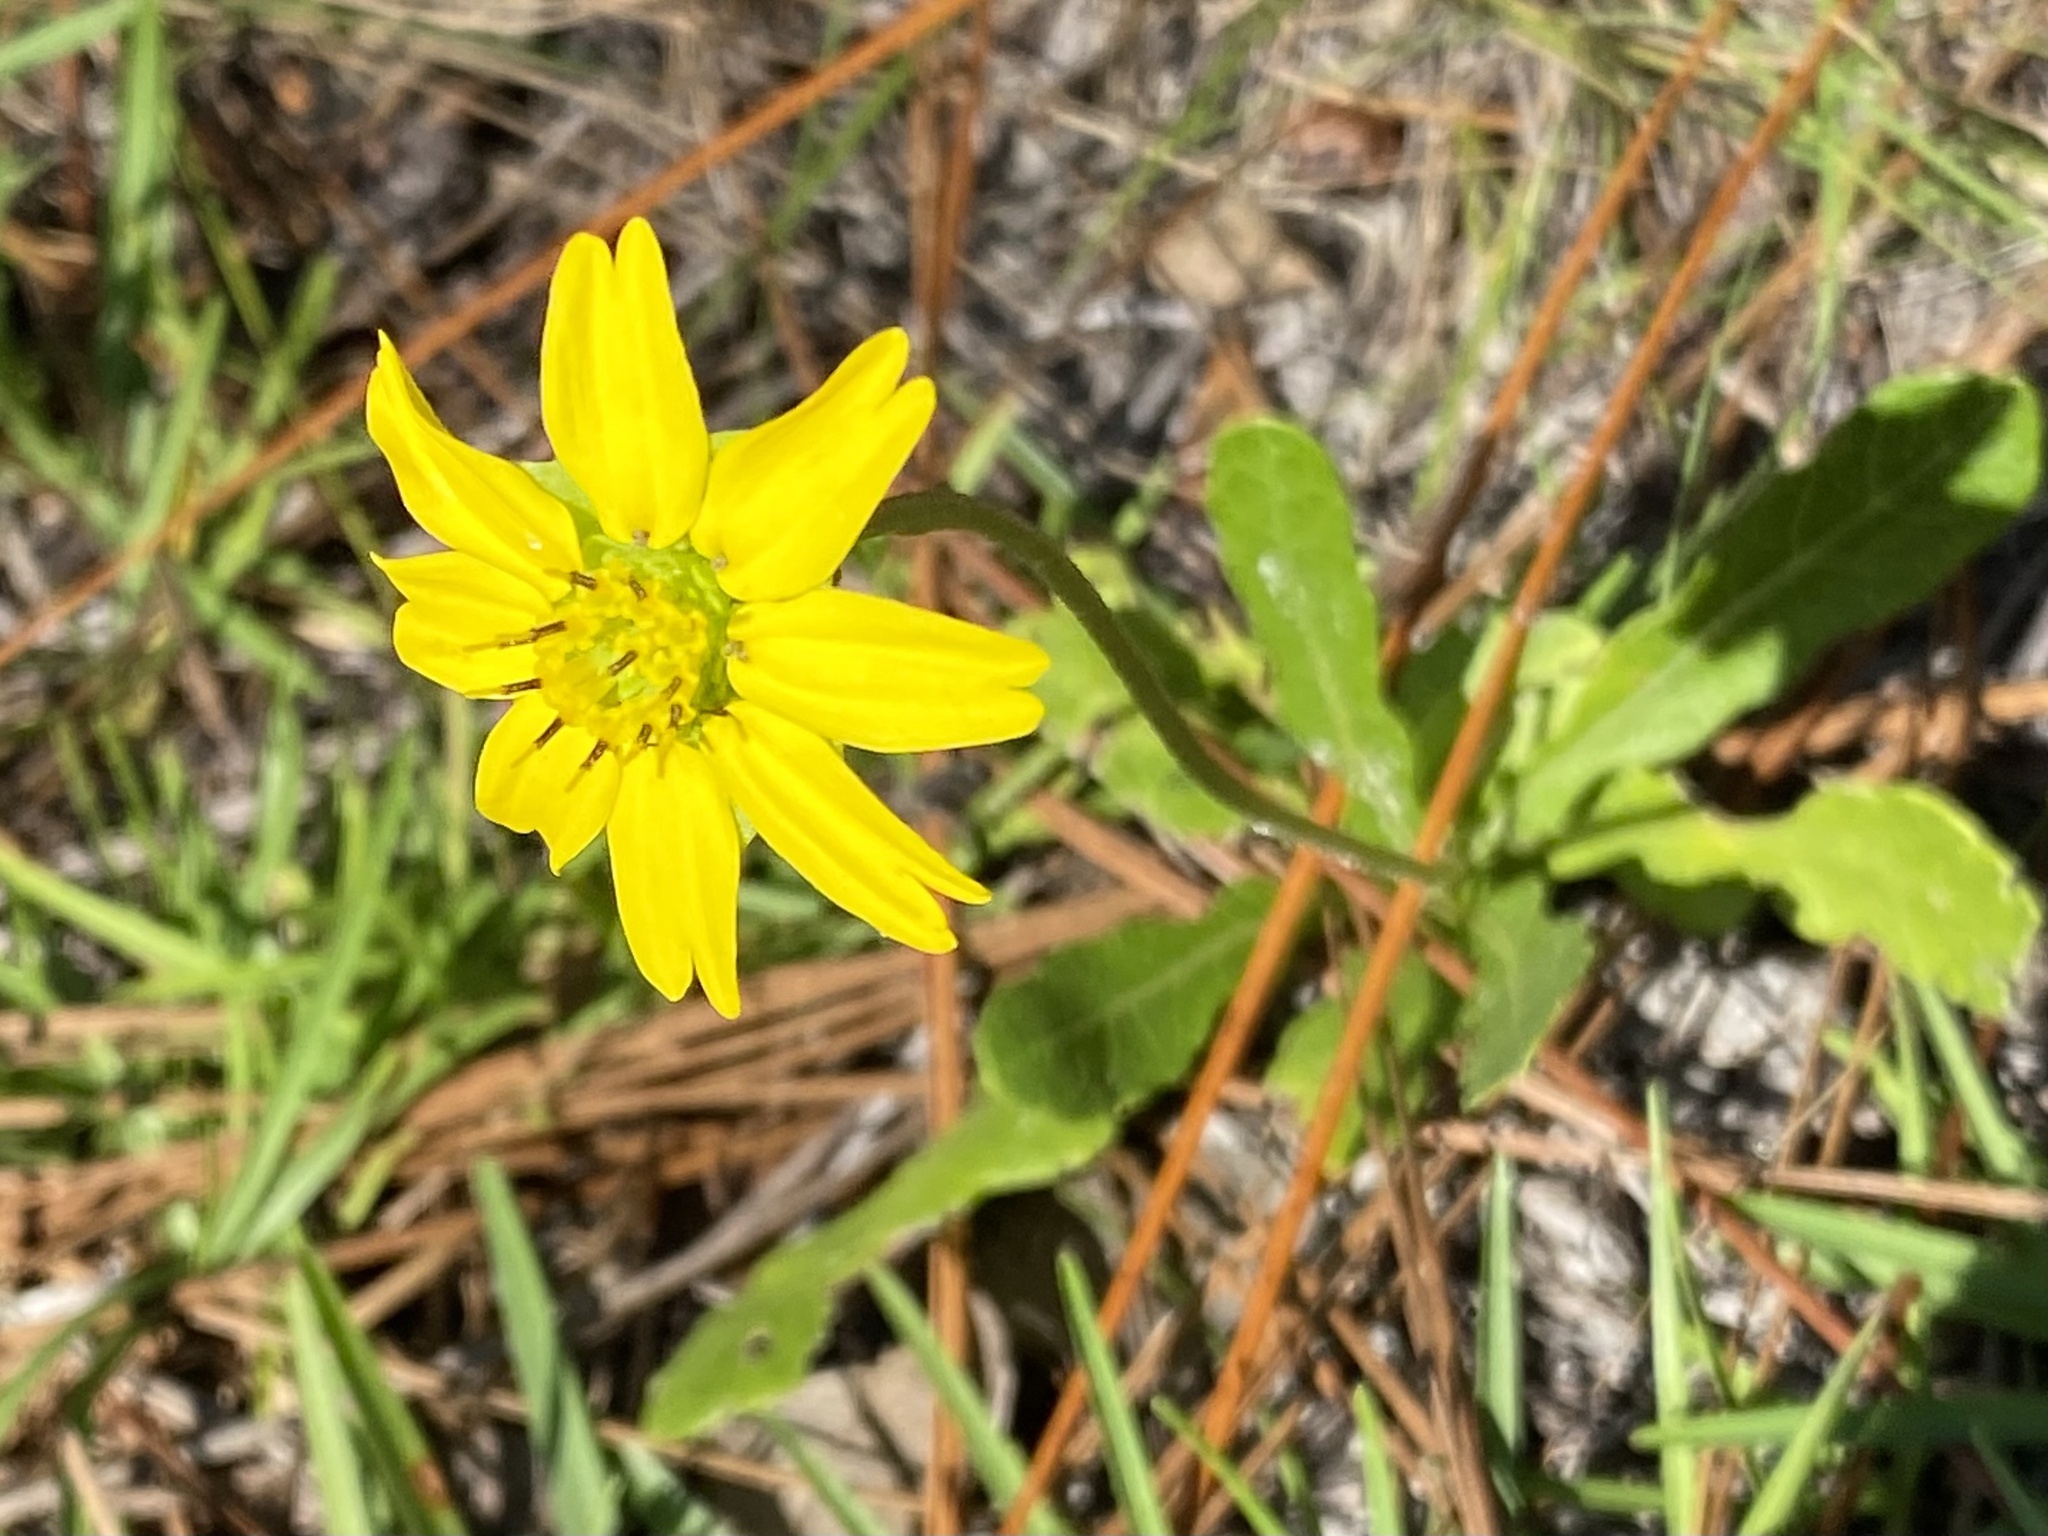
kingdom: Plantae
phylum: Tracheophyta
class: Magnoliopsida
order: Asterales
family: Asteraceae
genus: Berlandiera
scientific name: Berlandiera subacaulis
